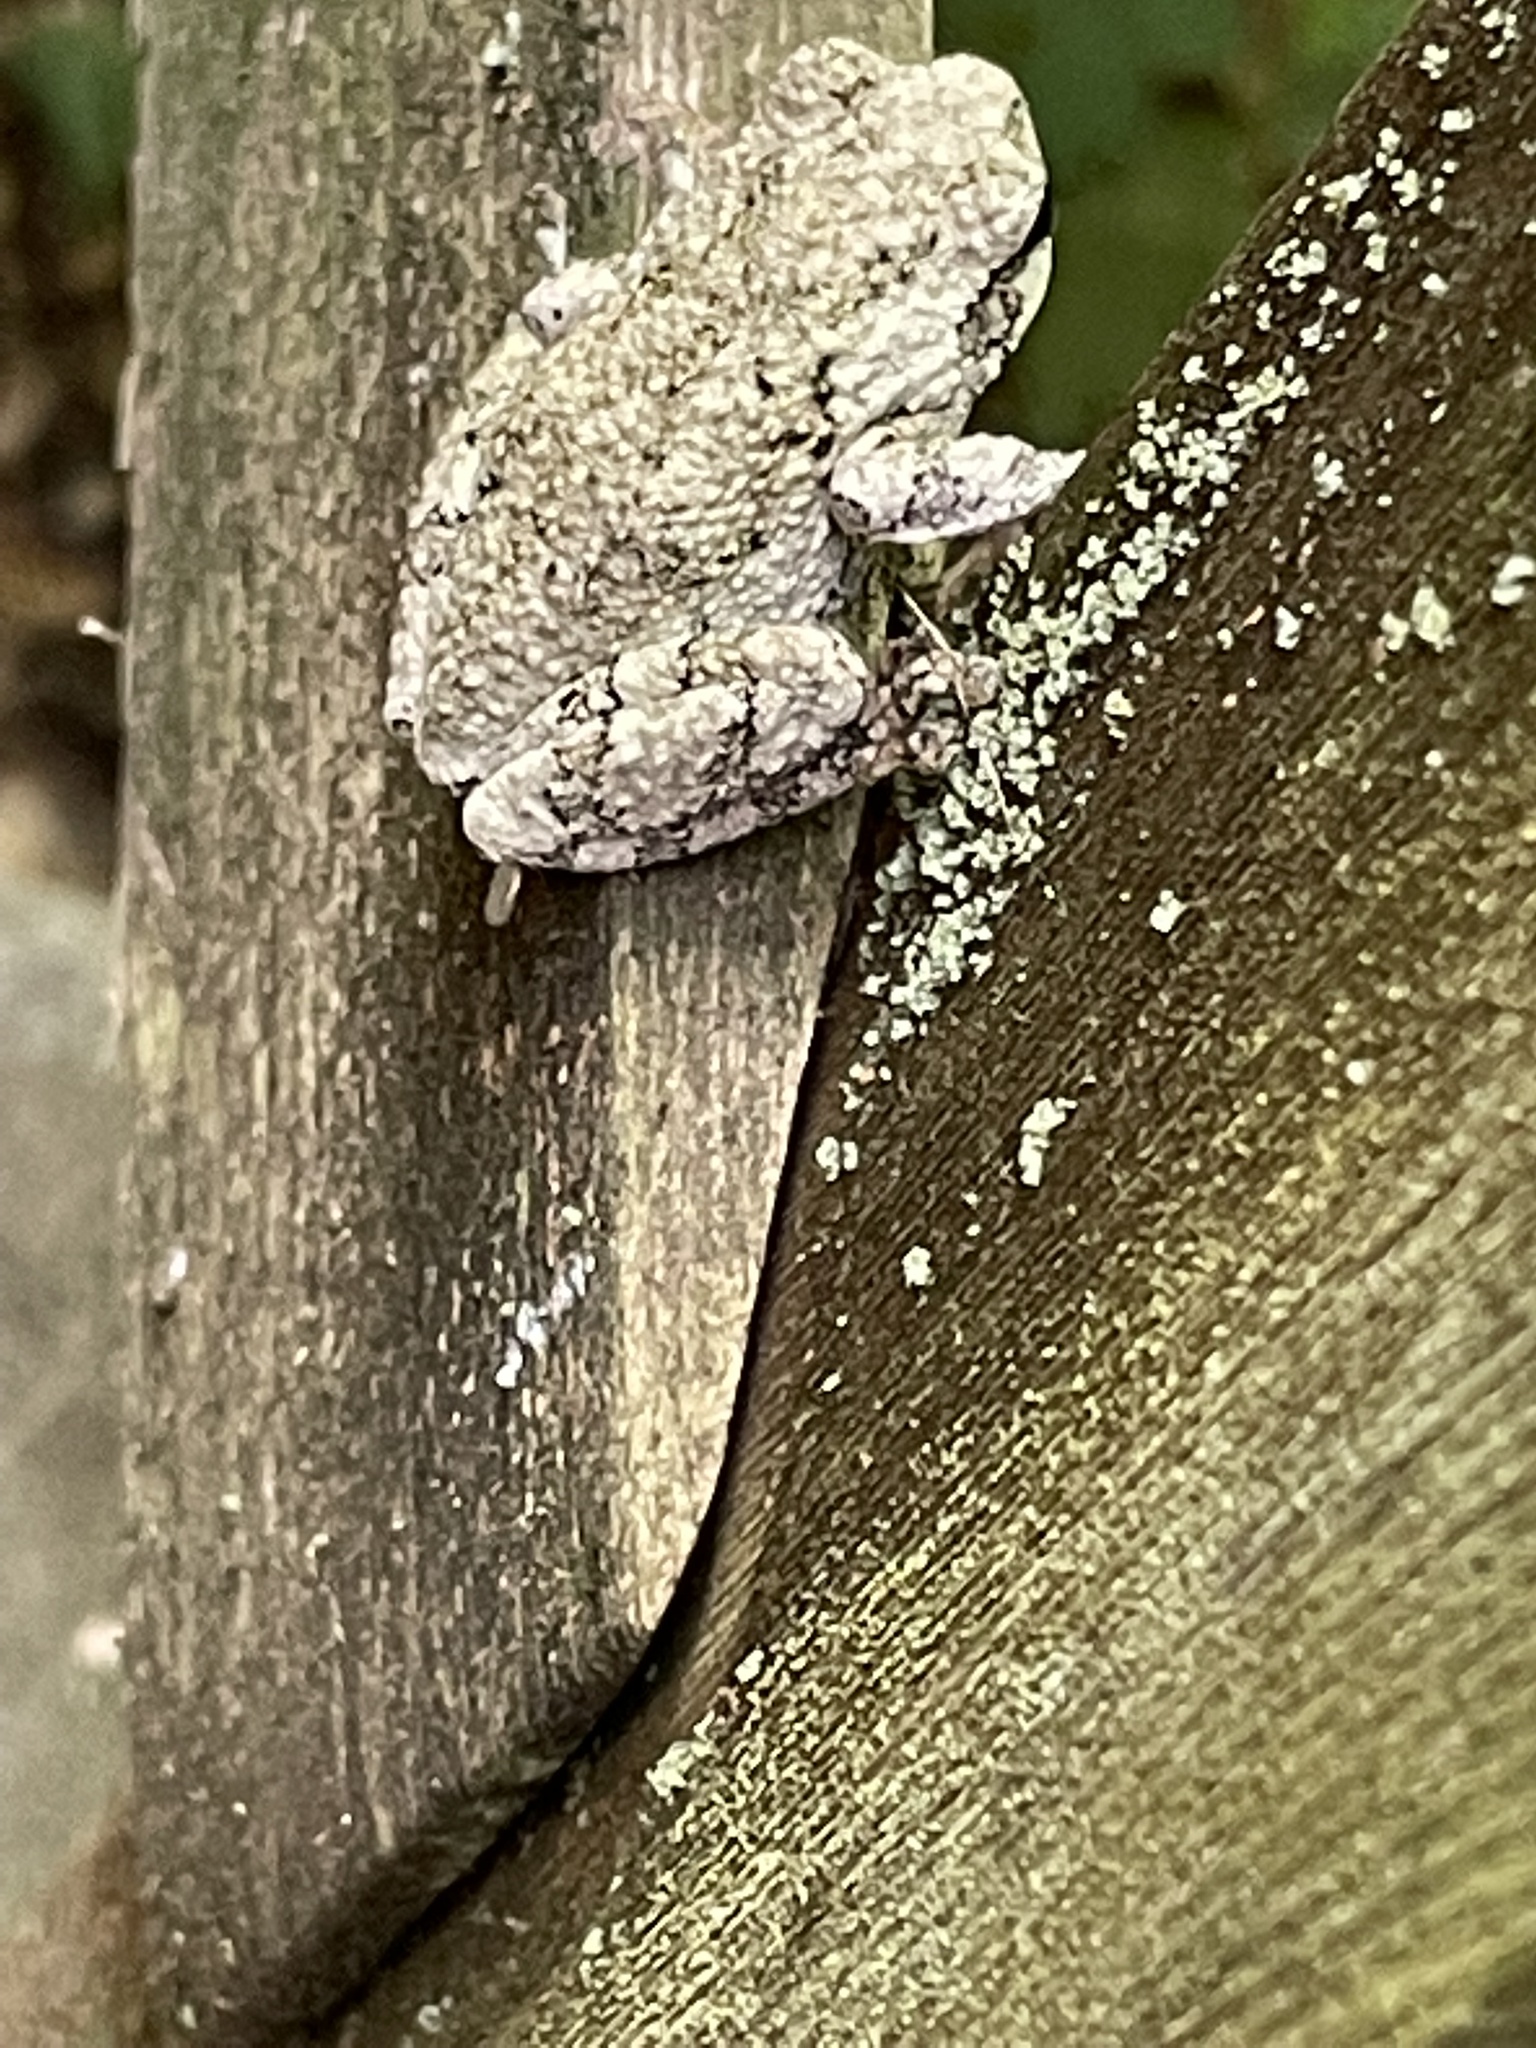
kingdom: Animalia
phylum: Chordata
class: Amphibia
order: Anura
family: Hylidae
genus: Dryophytes
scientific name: Dryophytes versicolor
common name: Gray treefrog
